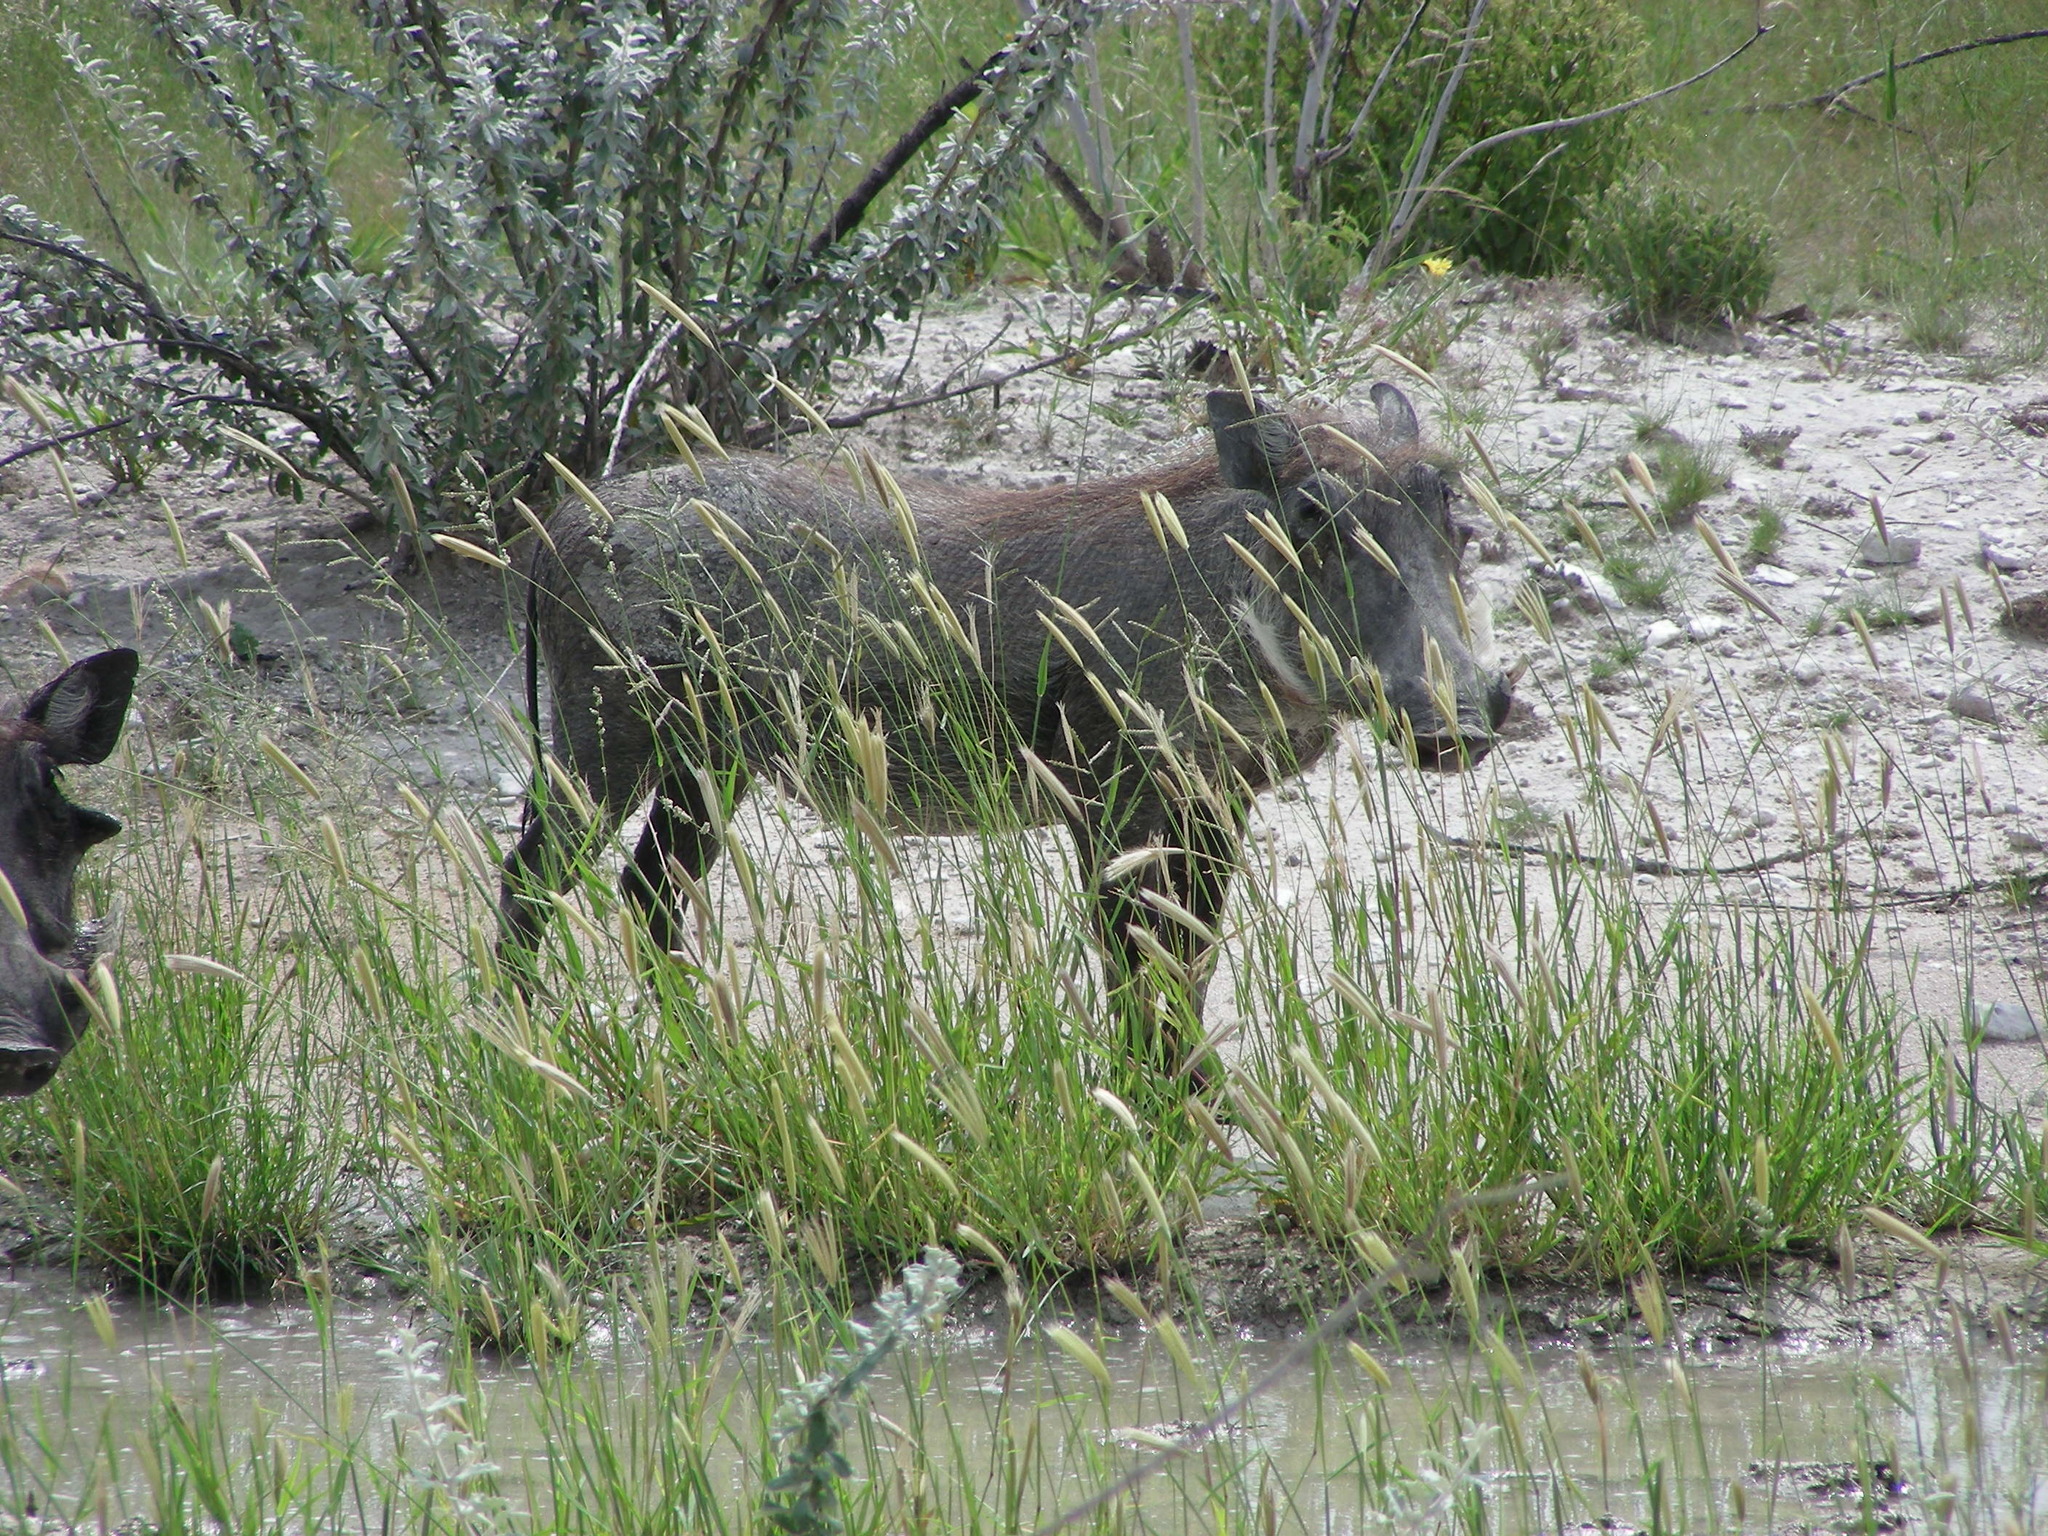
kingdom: Animalia
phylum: Chordata
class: Mammalia
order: Artiodactyla
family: Suidae
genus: Phacochoerus
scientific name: Phacochoerus africanus
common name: Common warthog
